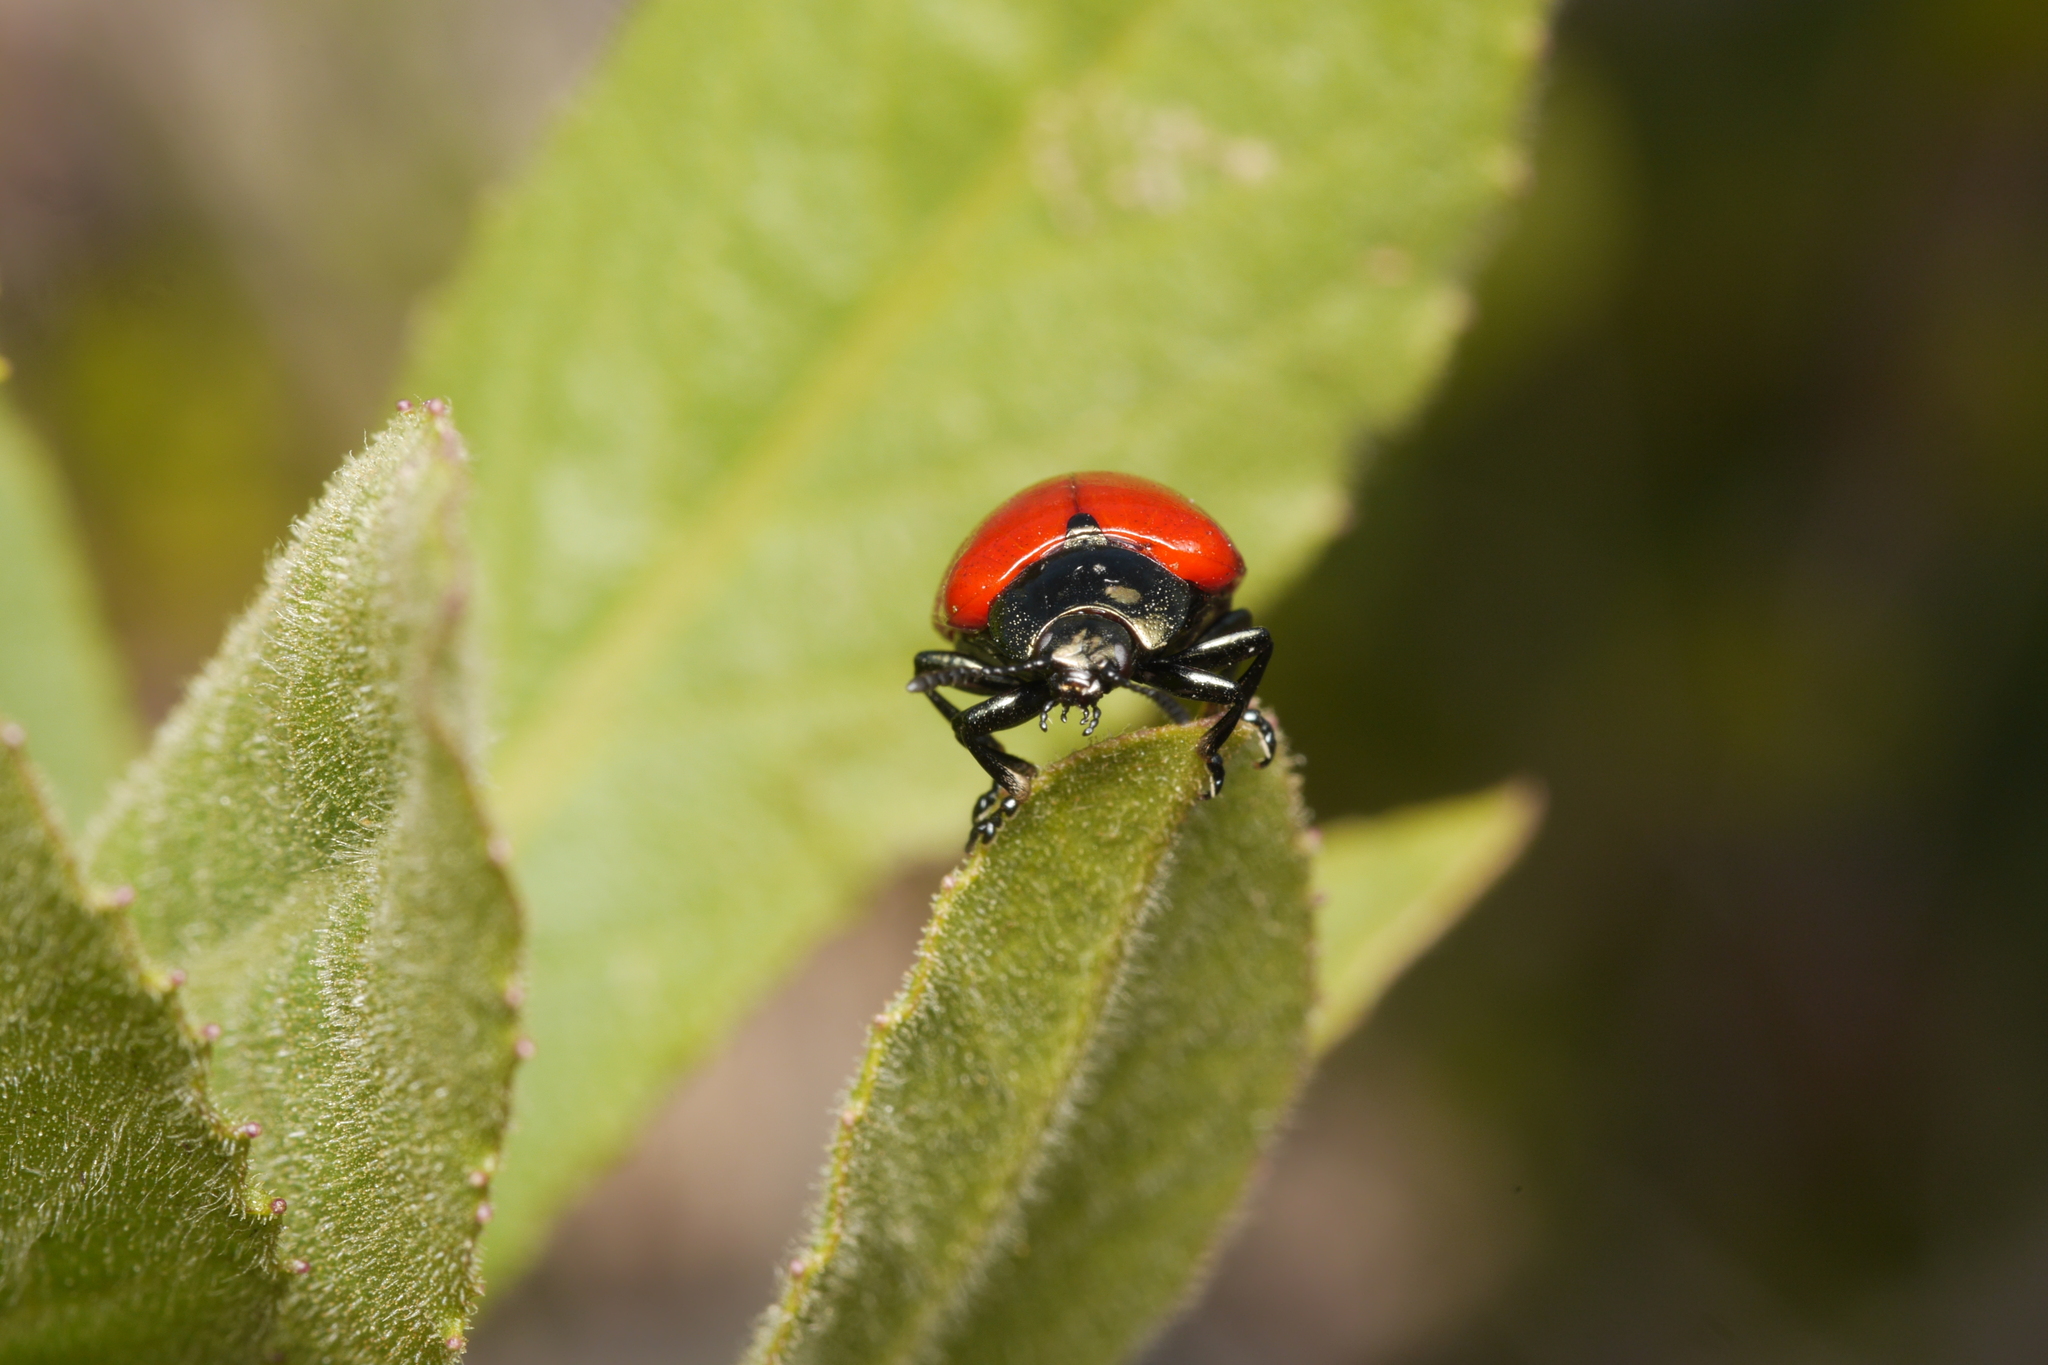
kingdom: Animalia
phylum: Arthropoda
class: Insecta
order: Coleoptera
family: Chrysomelidae
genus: Chrysomela
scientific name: Chrysomela populi
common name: Red poplar leaf beetle
